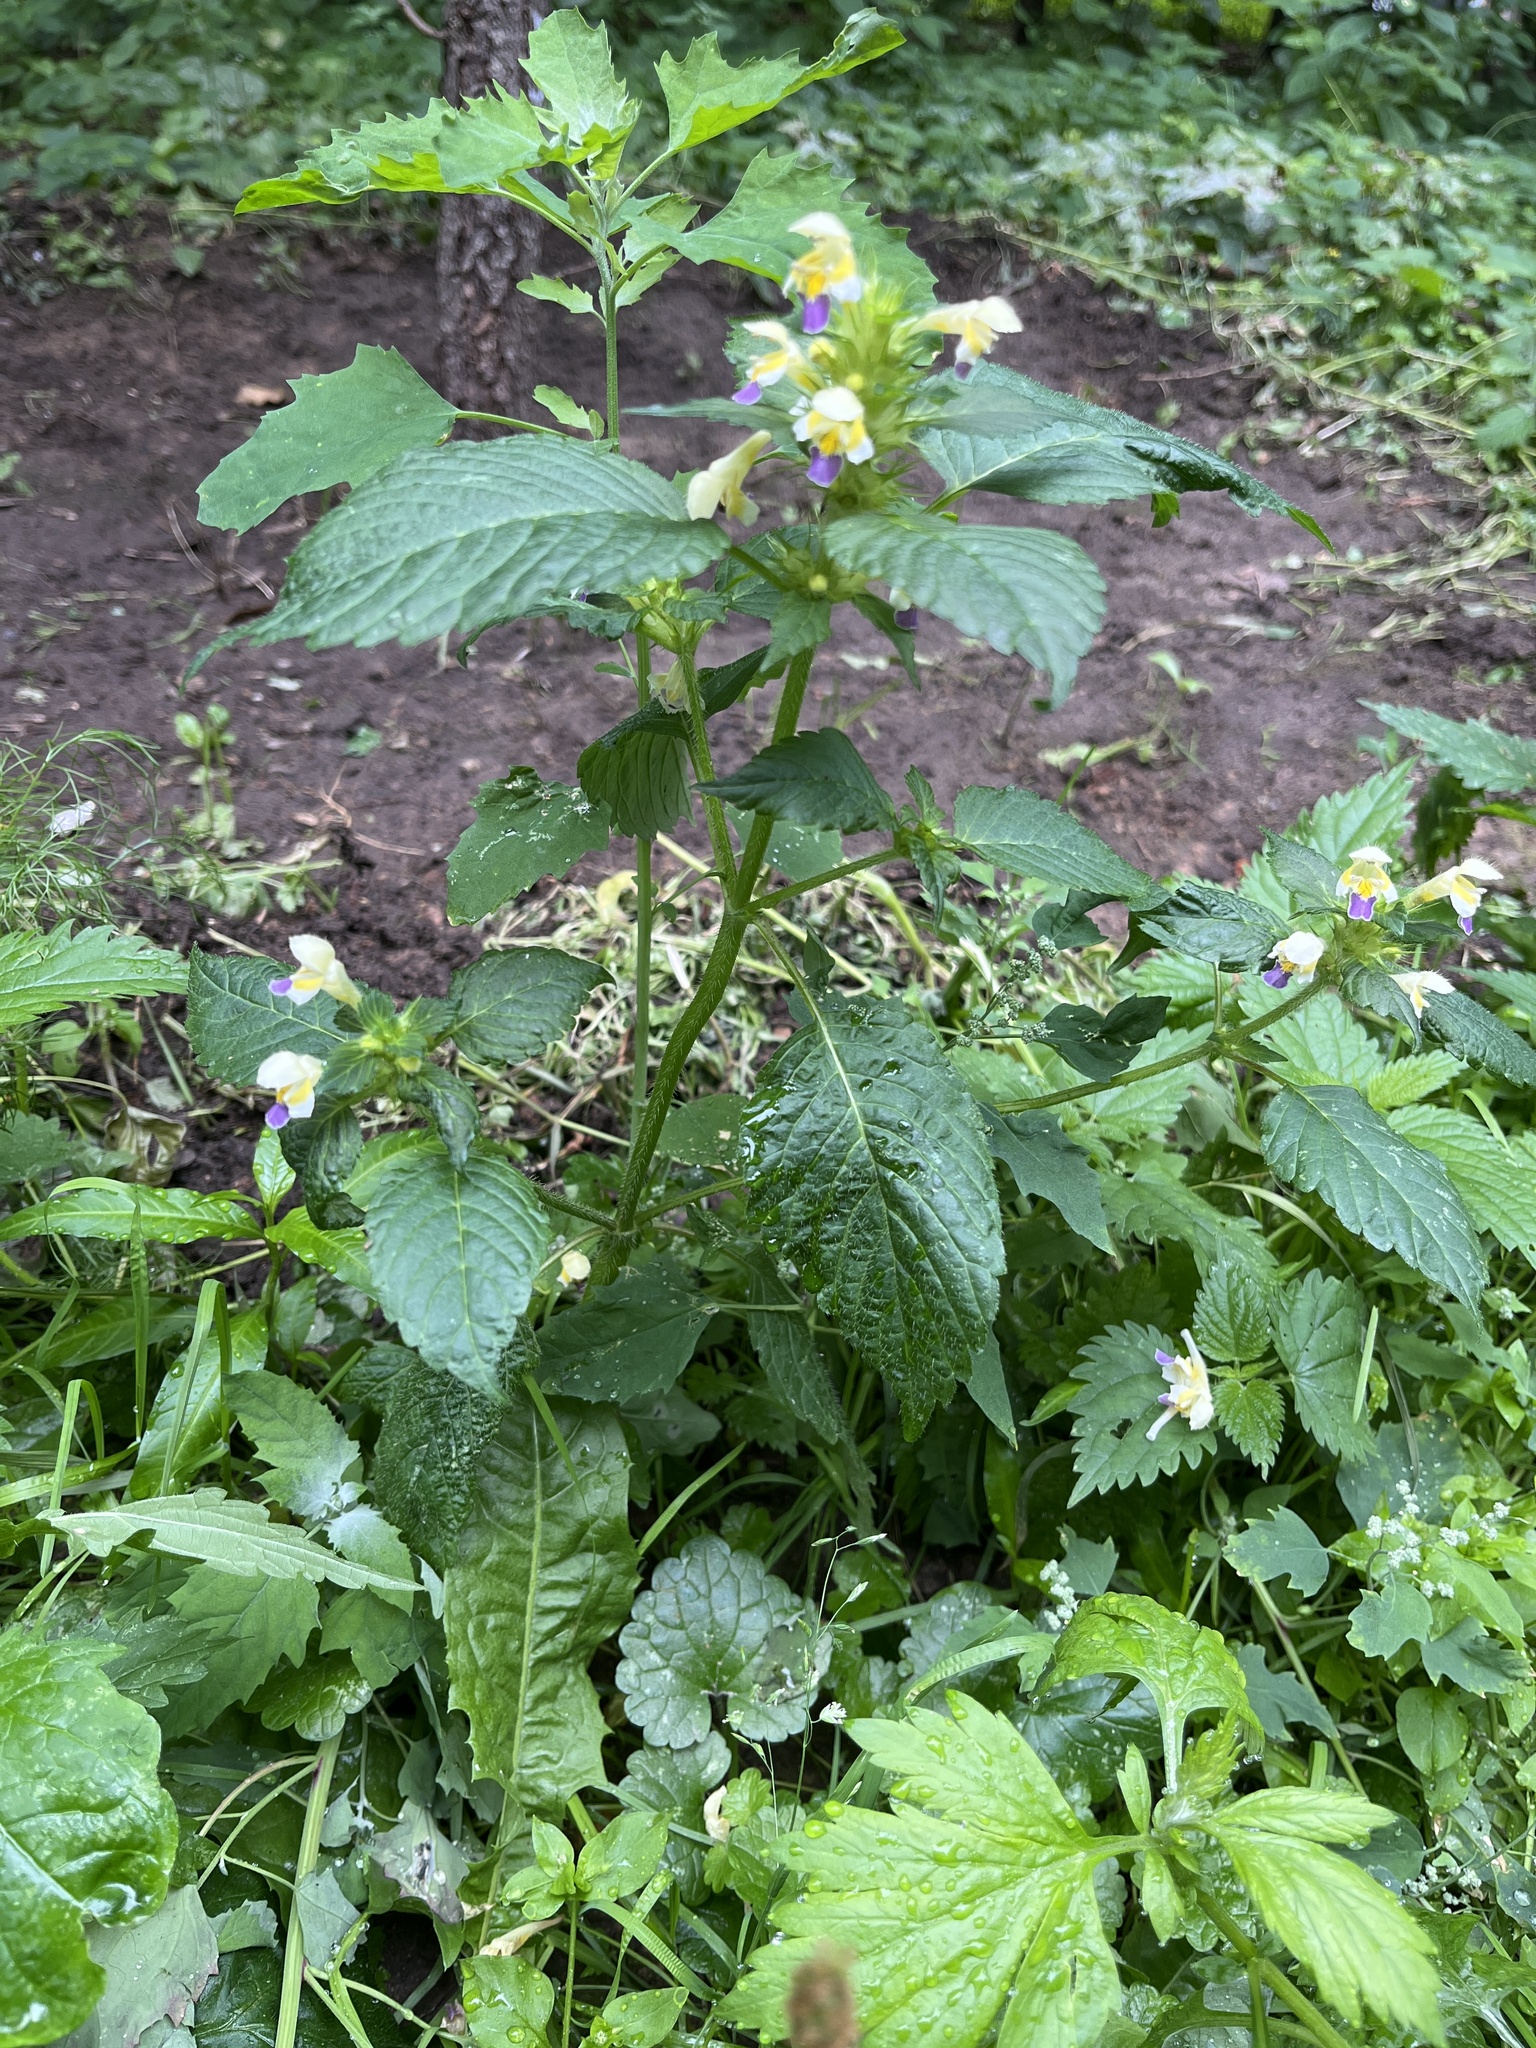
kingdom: Plantae
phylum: Tracheophyta
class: Magnoliopsida
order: Lamiales
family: Lamiaceae
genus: Galeopsis
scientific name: Galeopsis speciosa
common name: Large-flowered hemp-nettle
